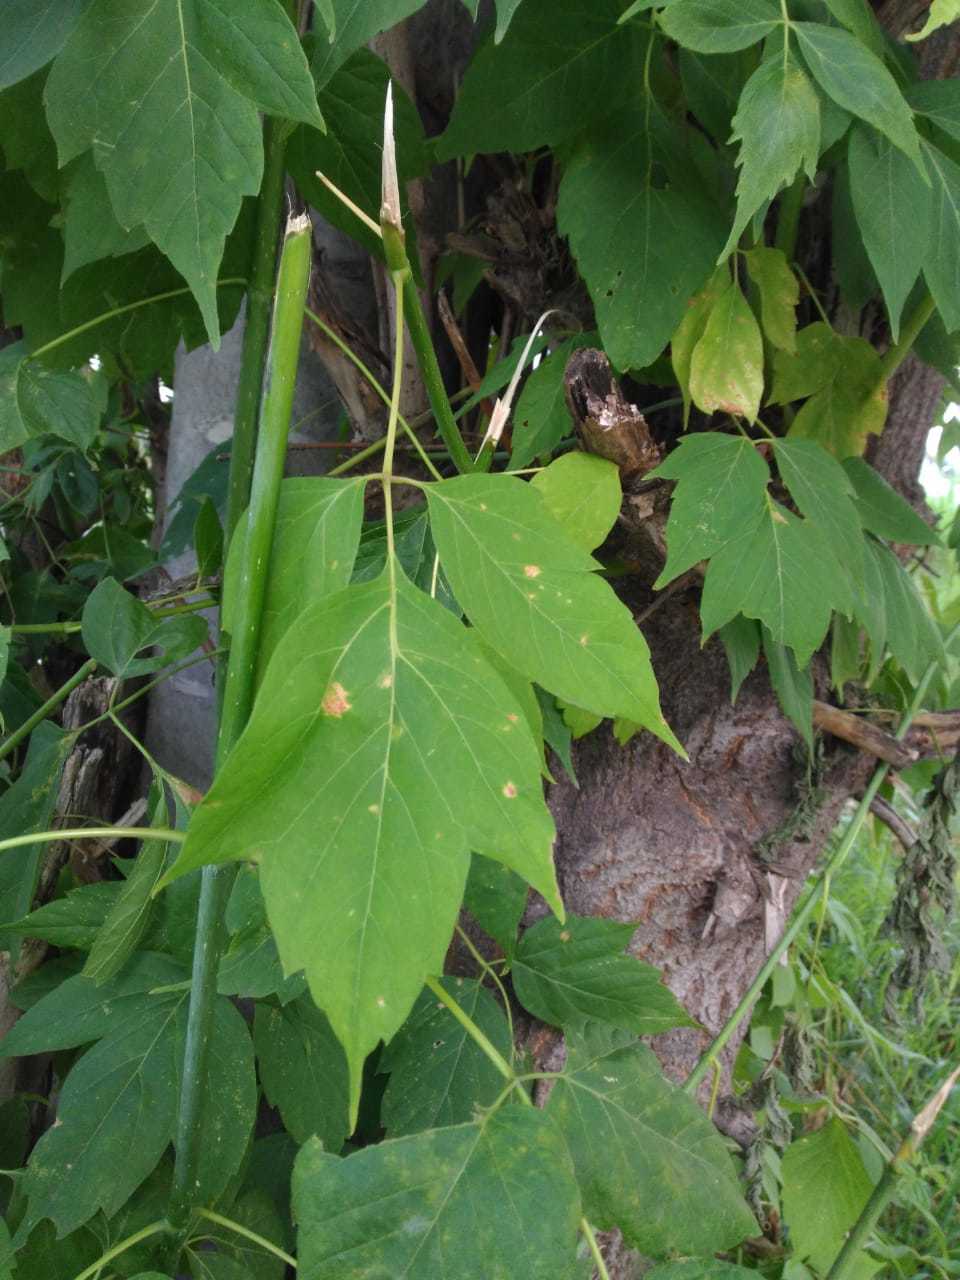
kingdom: Plantae
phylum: Tracheophyta
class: Magnoliopsida
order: Sapindales
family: Sapindaceae
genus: Acer
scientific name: Acer negundo
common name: Ashleaf maple
